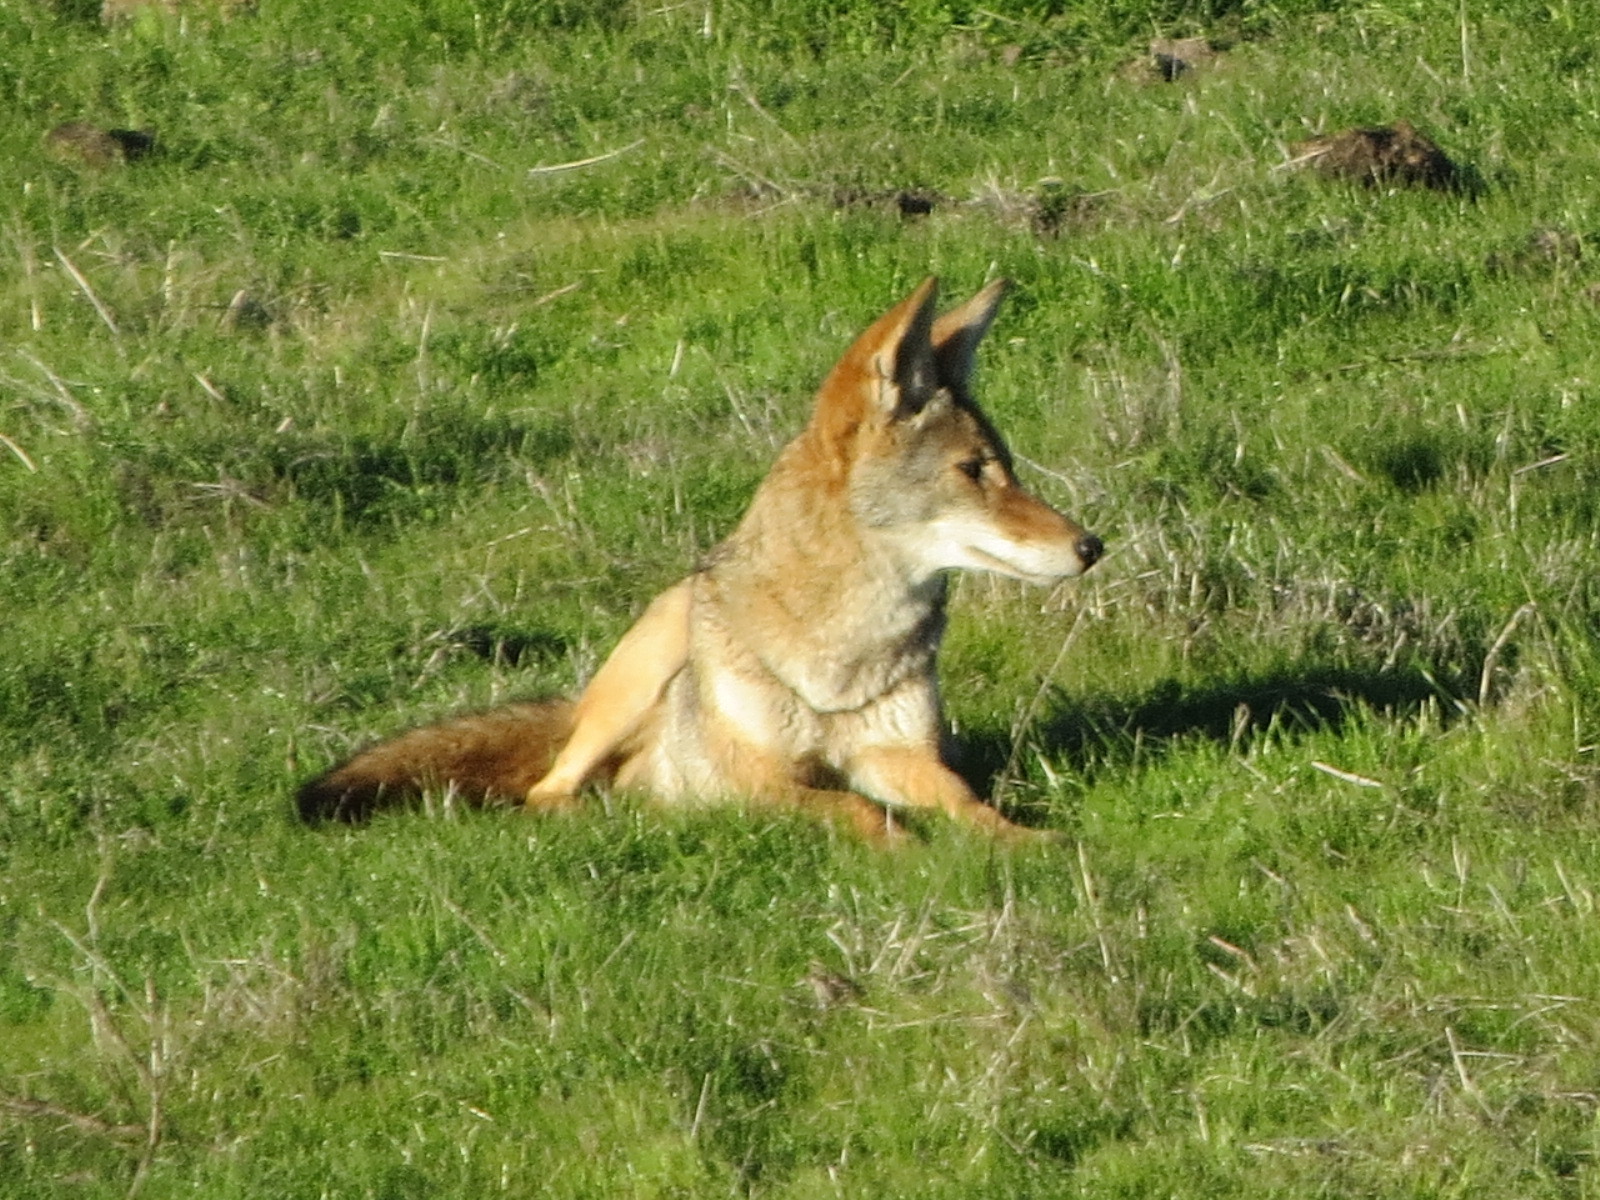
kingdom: Animalia
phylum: Chordata
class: Mammalia
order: Carnivora
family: Canidae
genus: Canis
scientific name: Canis latrans
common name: Coyote
